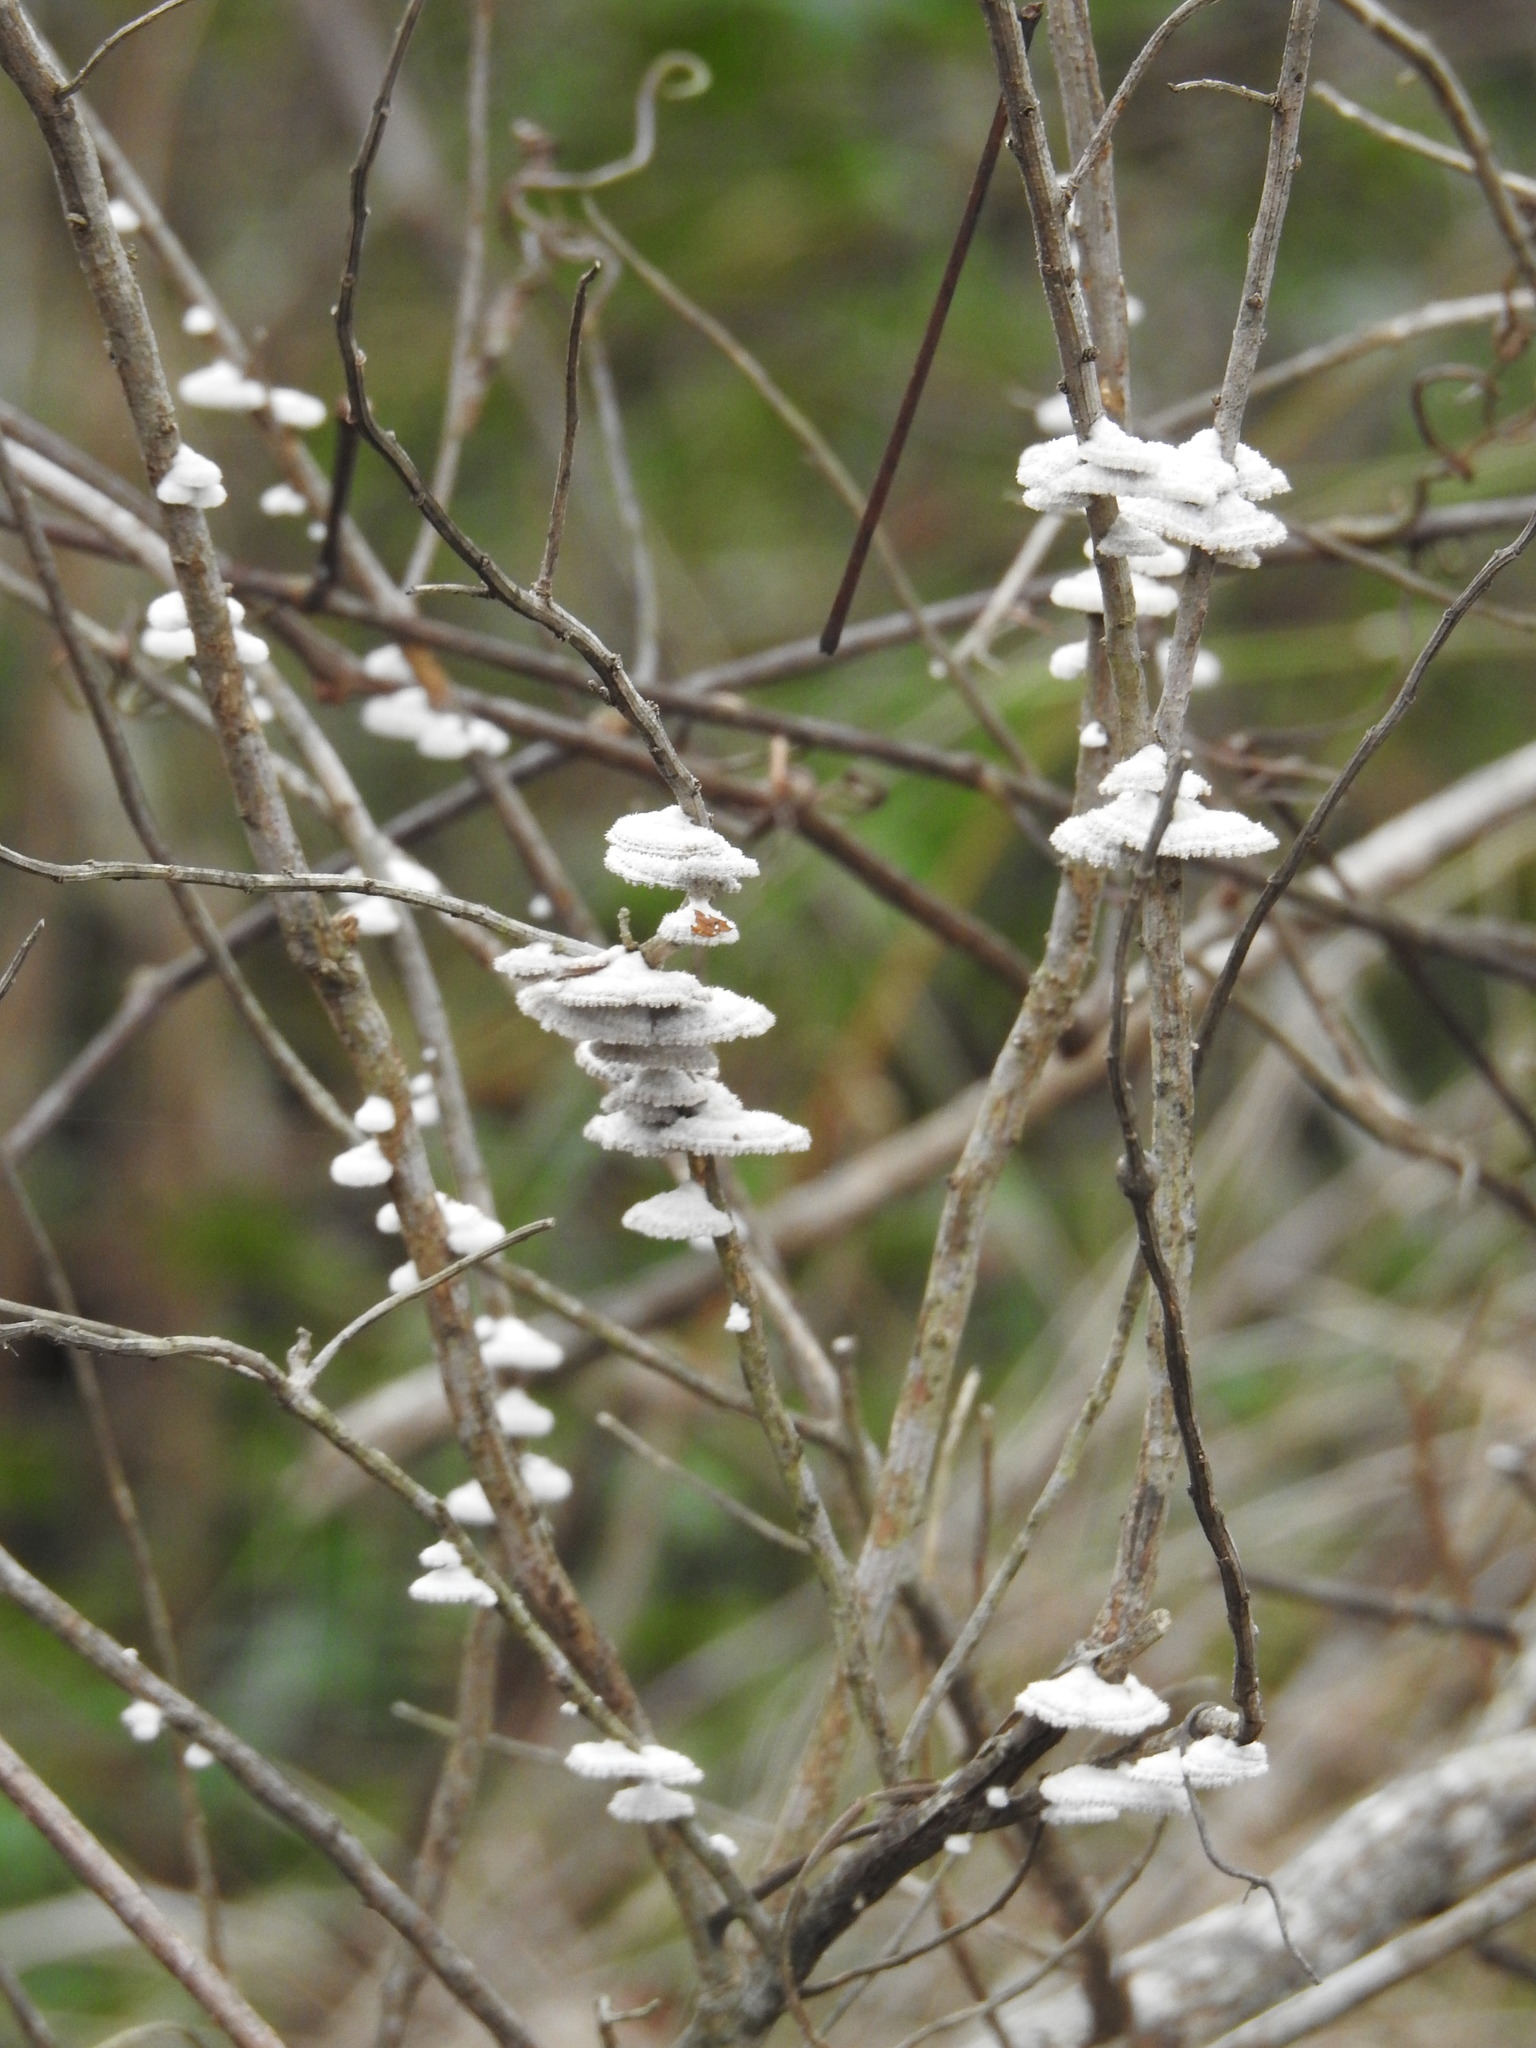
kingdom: Fungi
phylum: Basidiomycota
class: Agaricomycetes
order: Agaricales
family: Schizophyllaceae
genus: Schizophyllum
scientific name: Schizophyllum commune
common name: Common porecrust
